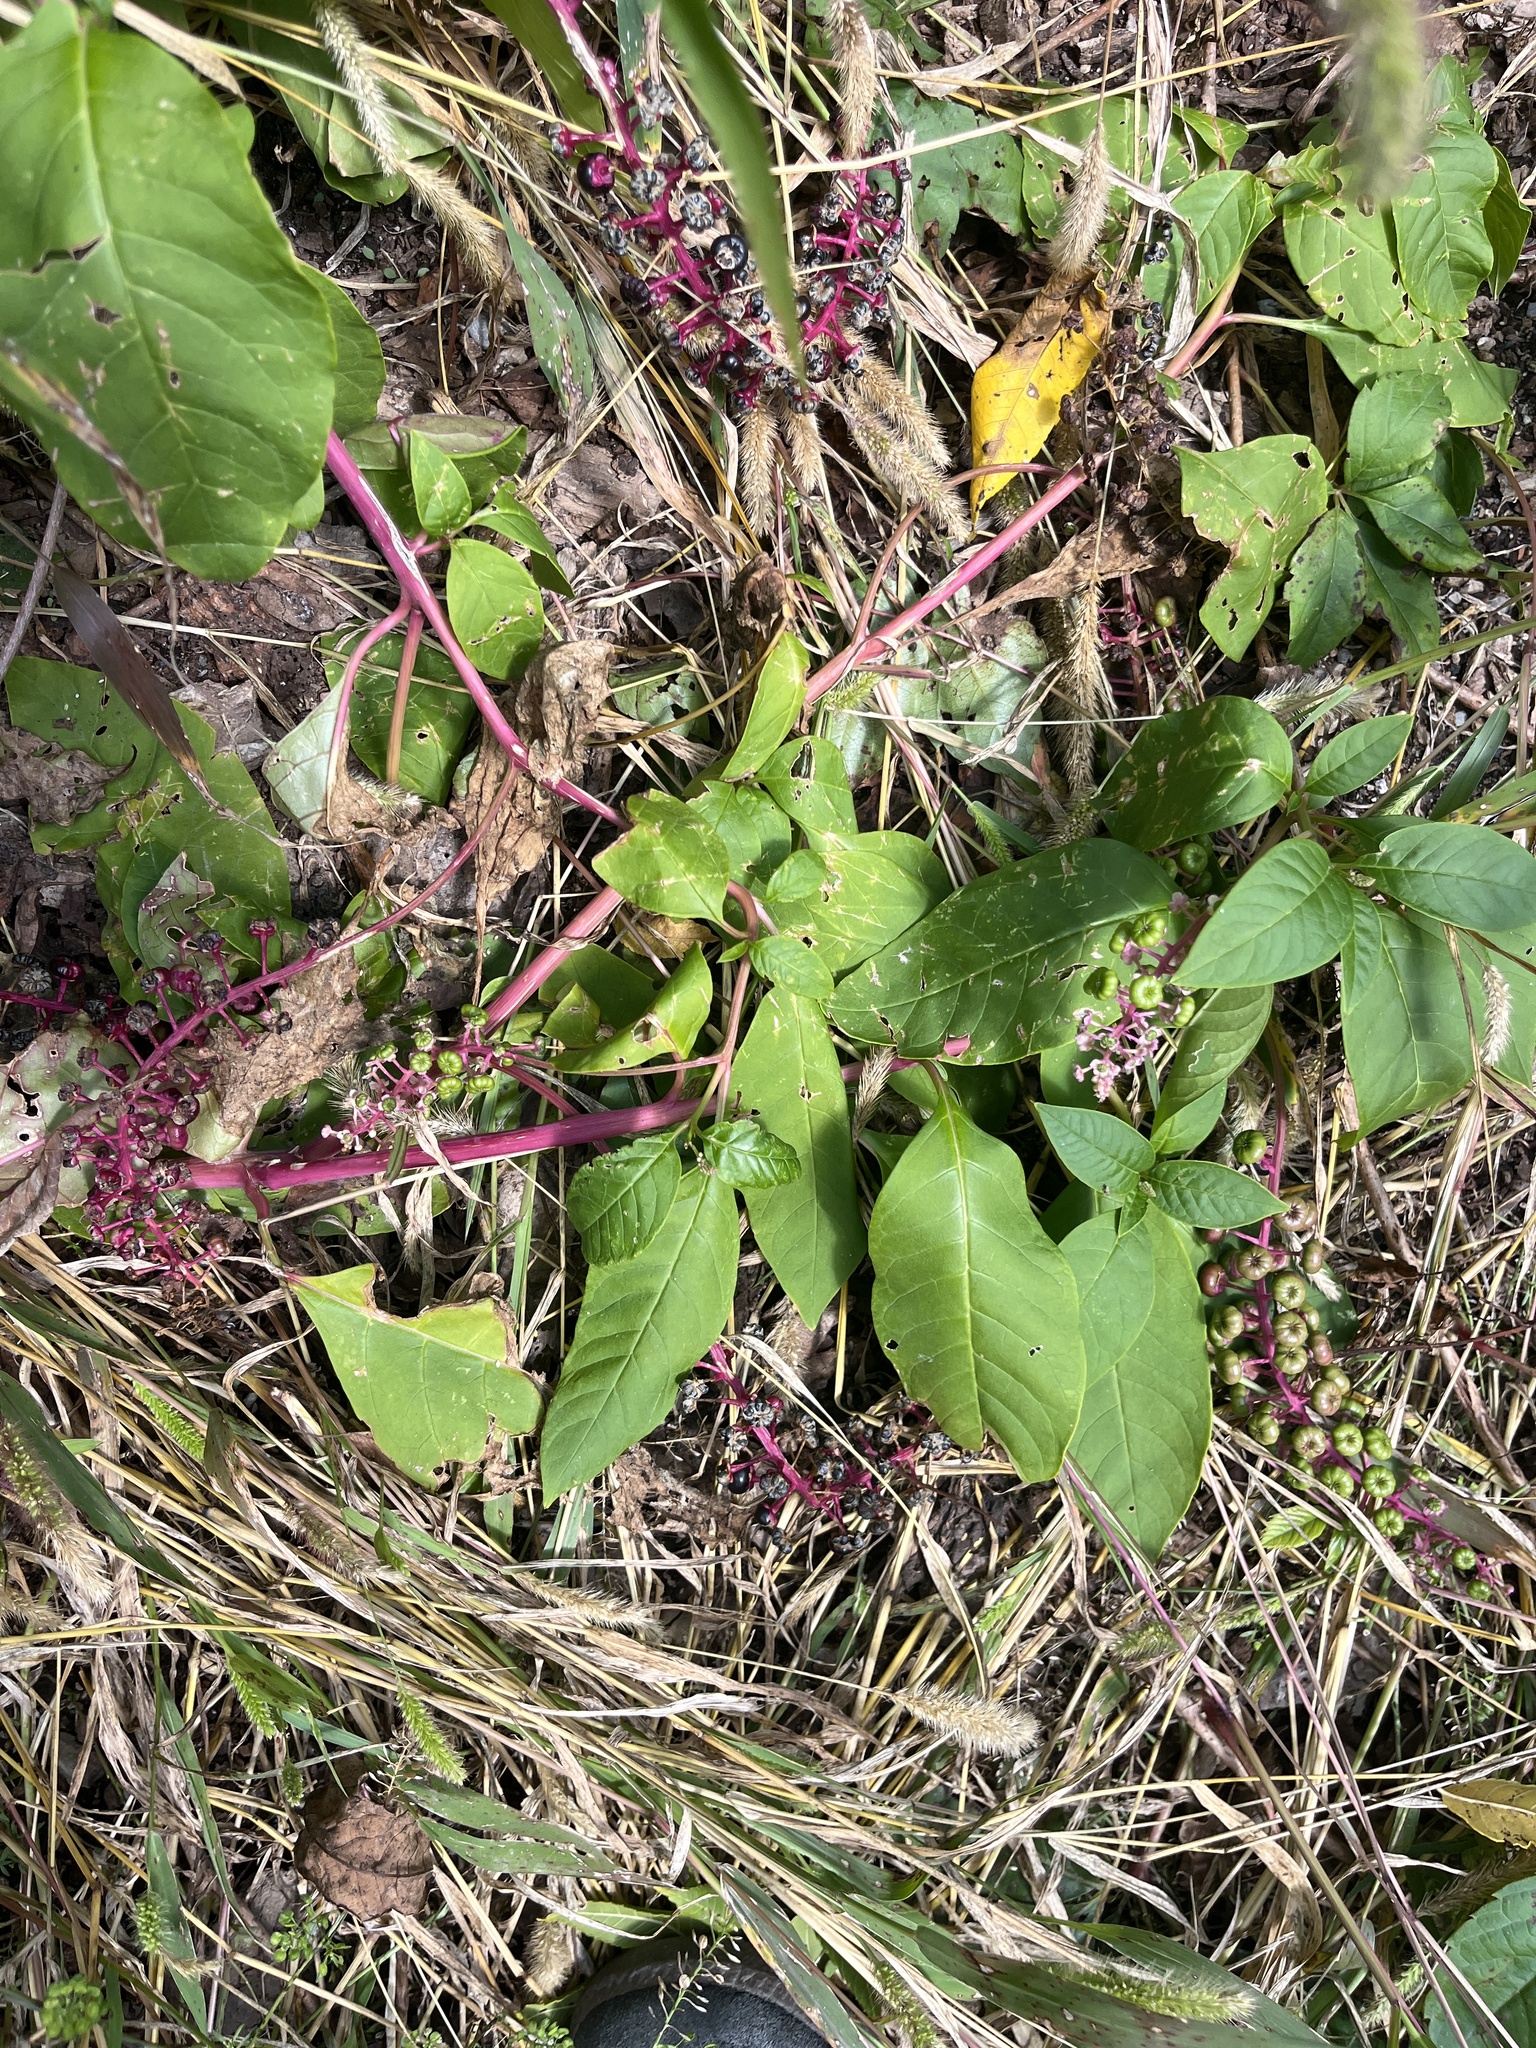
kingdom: Plantae
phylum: Tracheophyta
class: Magnoliopsida
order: Caryophyllales
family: Phytolaccaceae
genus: Phytolacca
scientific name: Phytolacca americana
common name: American pokeweed
